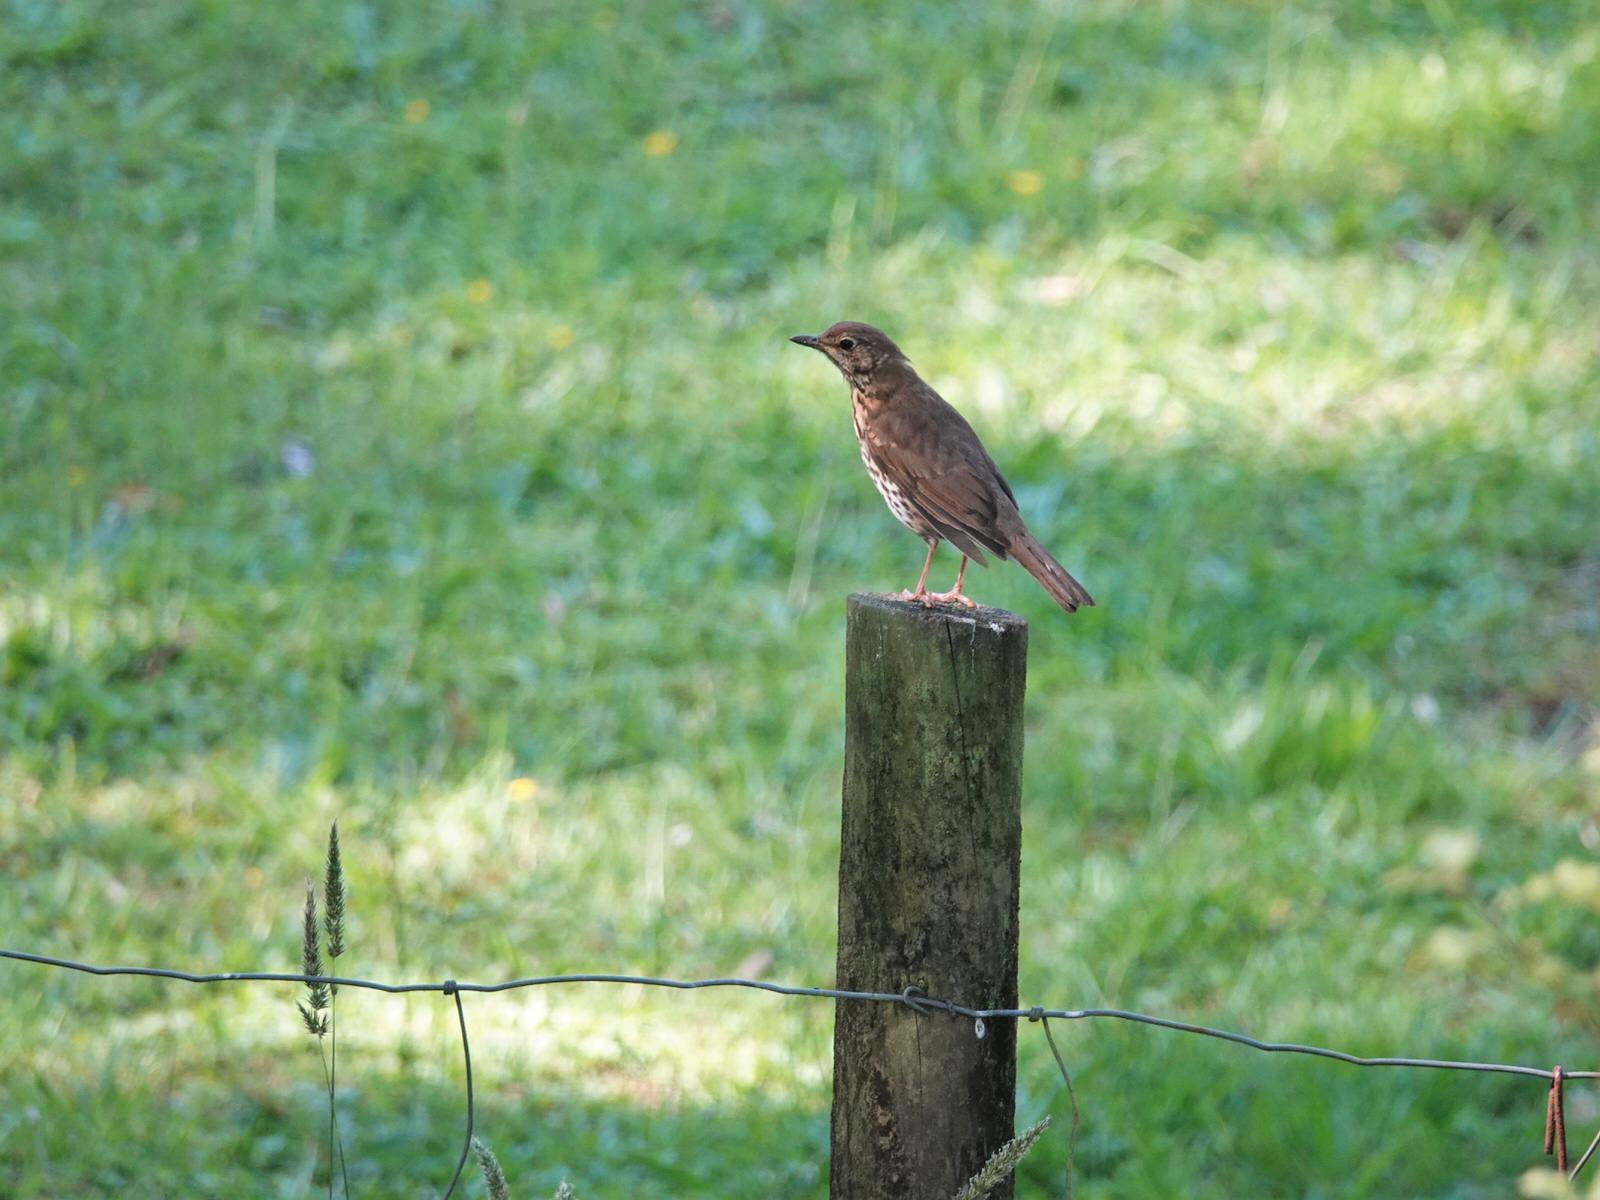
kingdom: Animalia
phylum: Chordata
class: Aves
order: Passeriformes
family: Turdidae
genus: Turdus
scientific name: Turdus philomelos
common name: Song thrush
